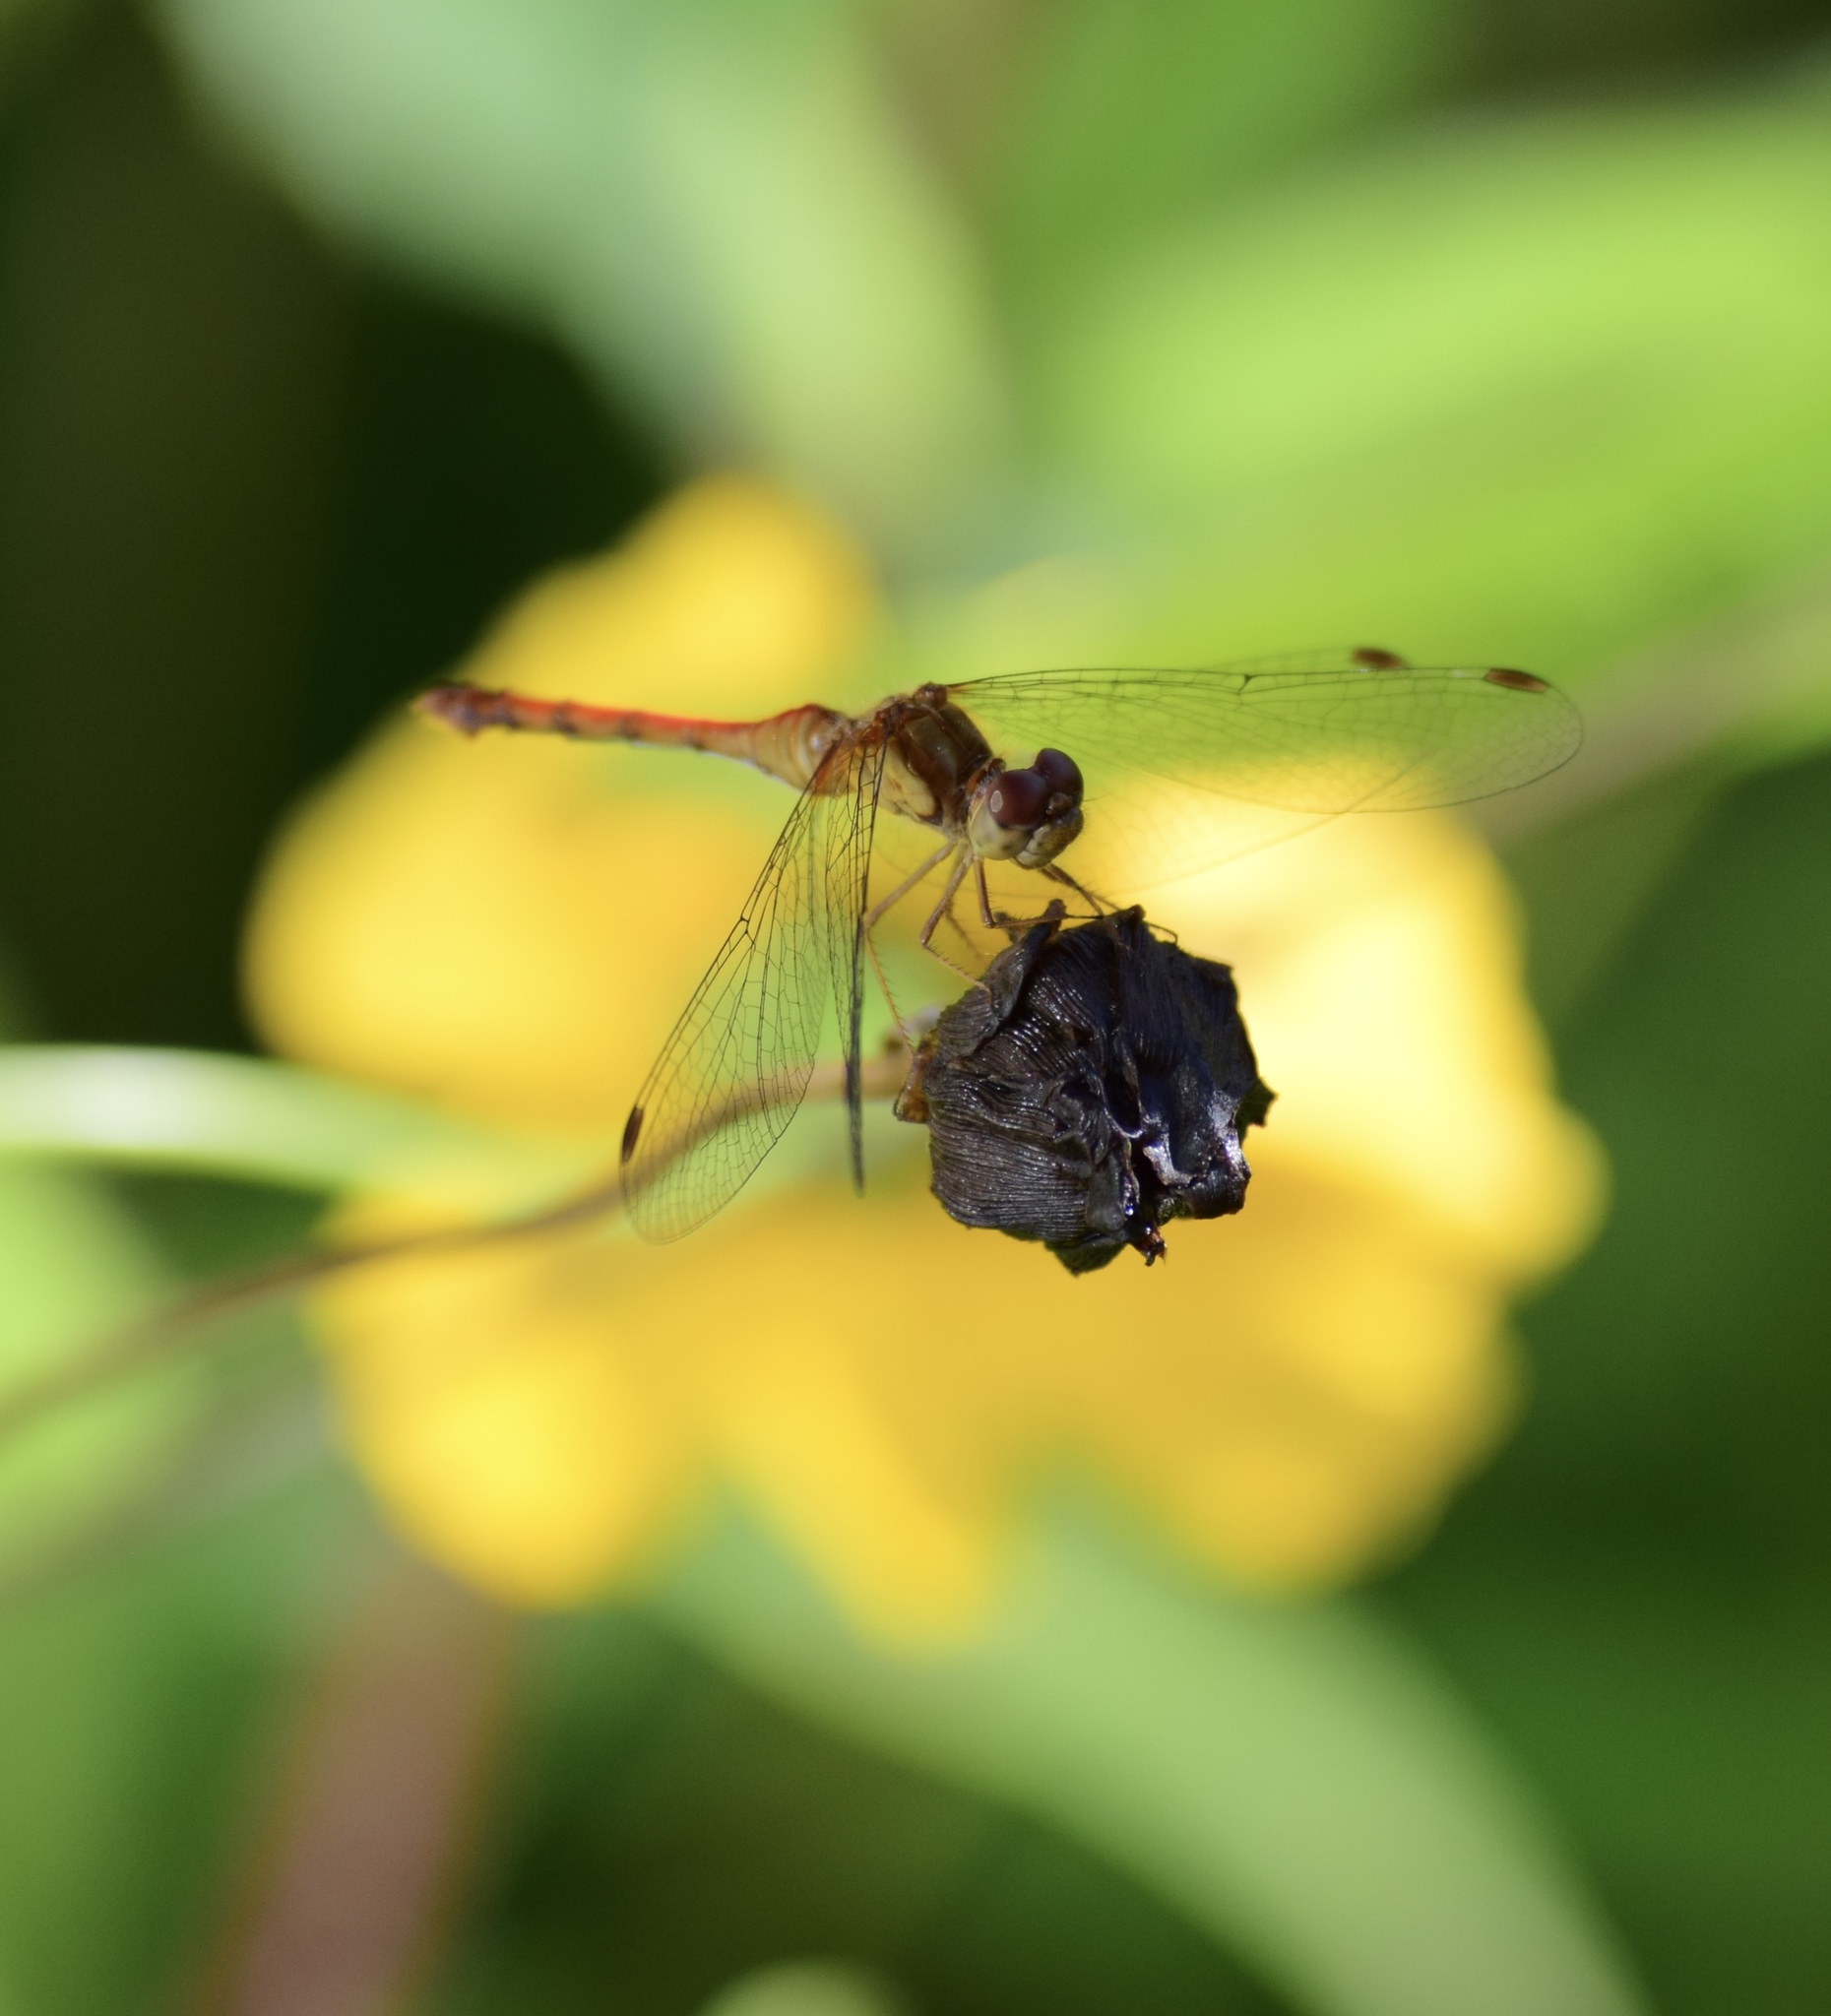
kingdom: Animalia
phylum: Arthropoda
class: Insecta
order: Odonata
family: Libellulidae
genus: Sympetrum
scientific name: Sympetrum vicinum
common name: Autumn meadowhawk
